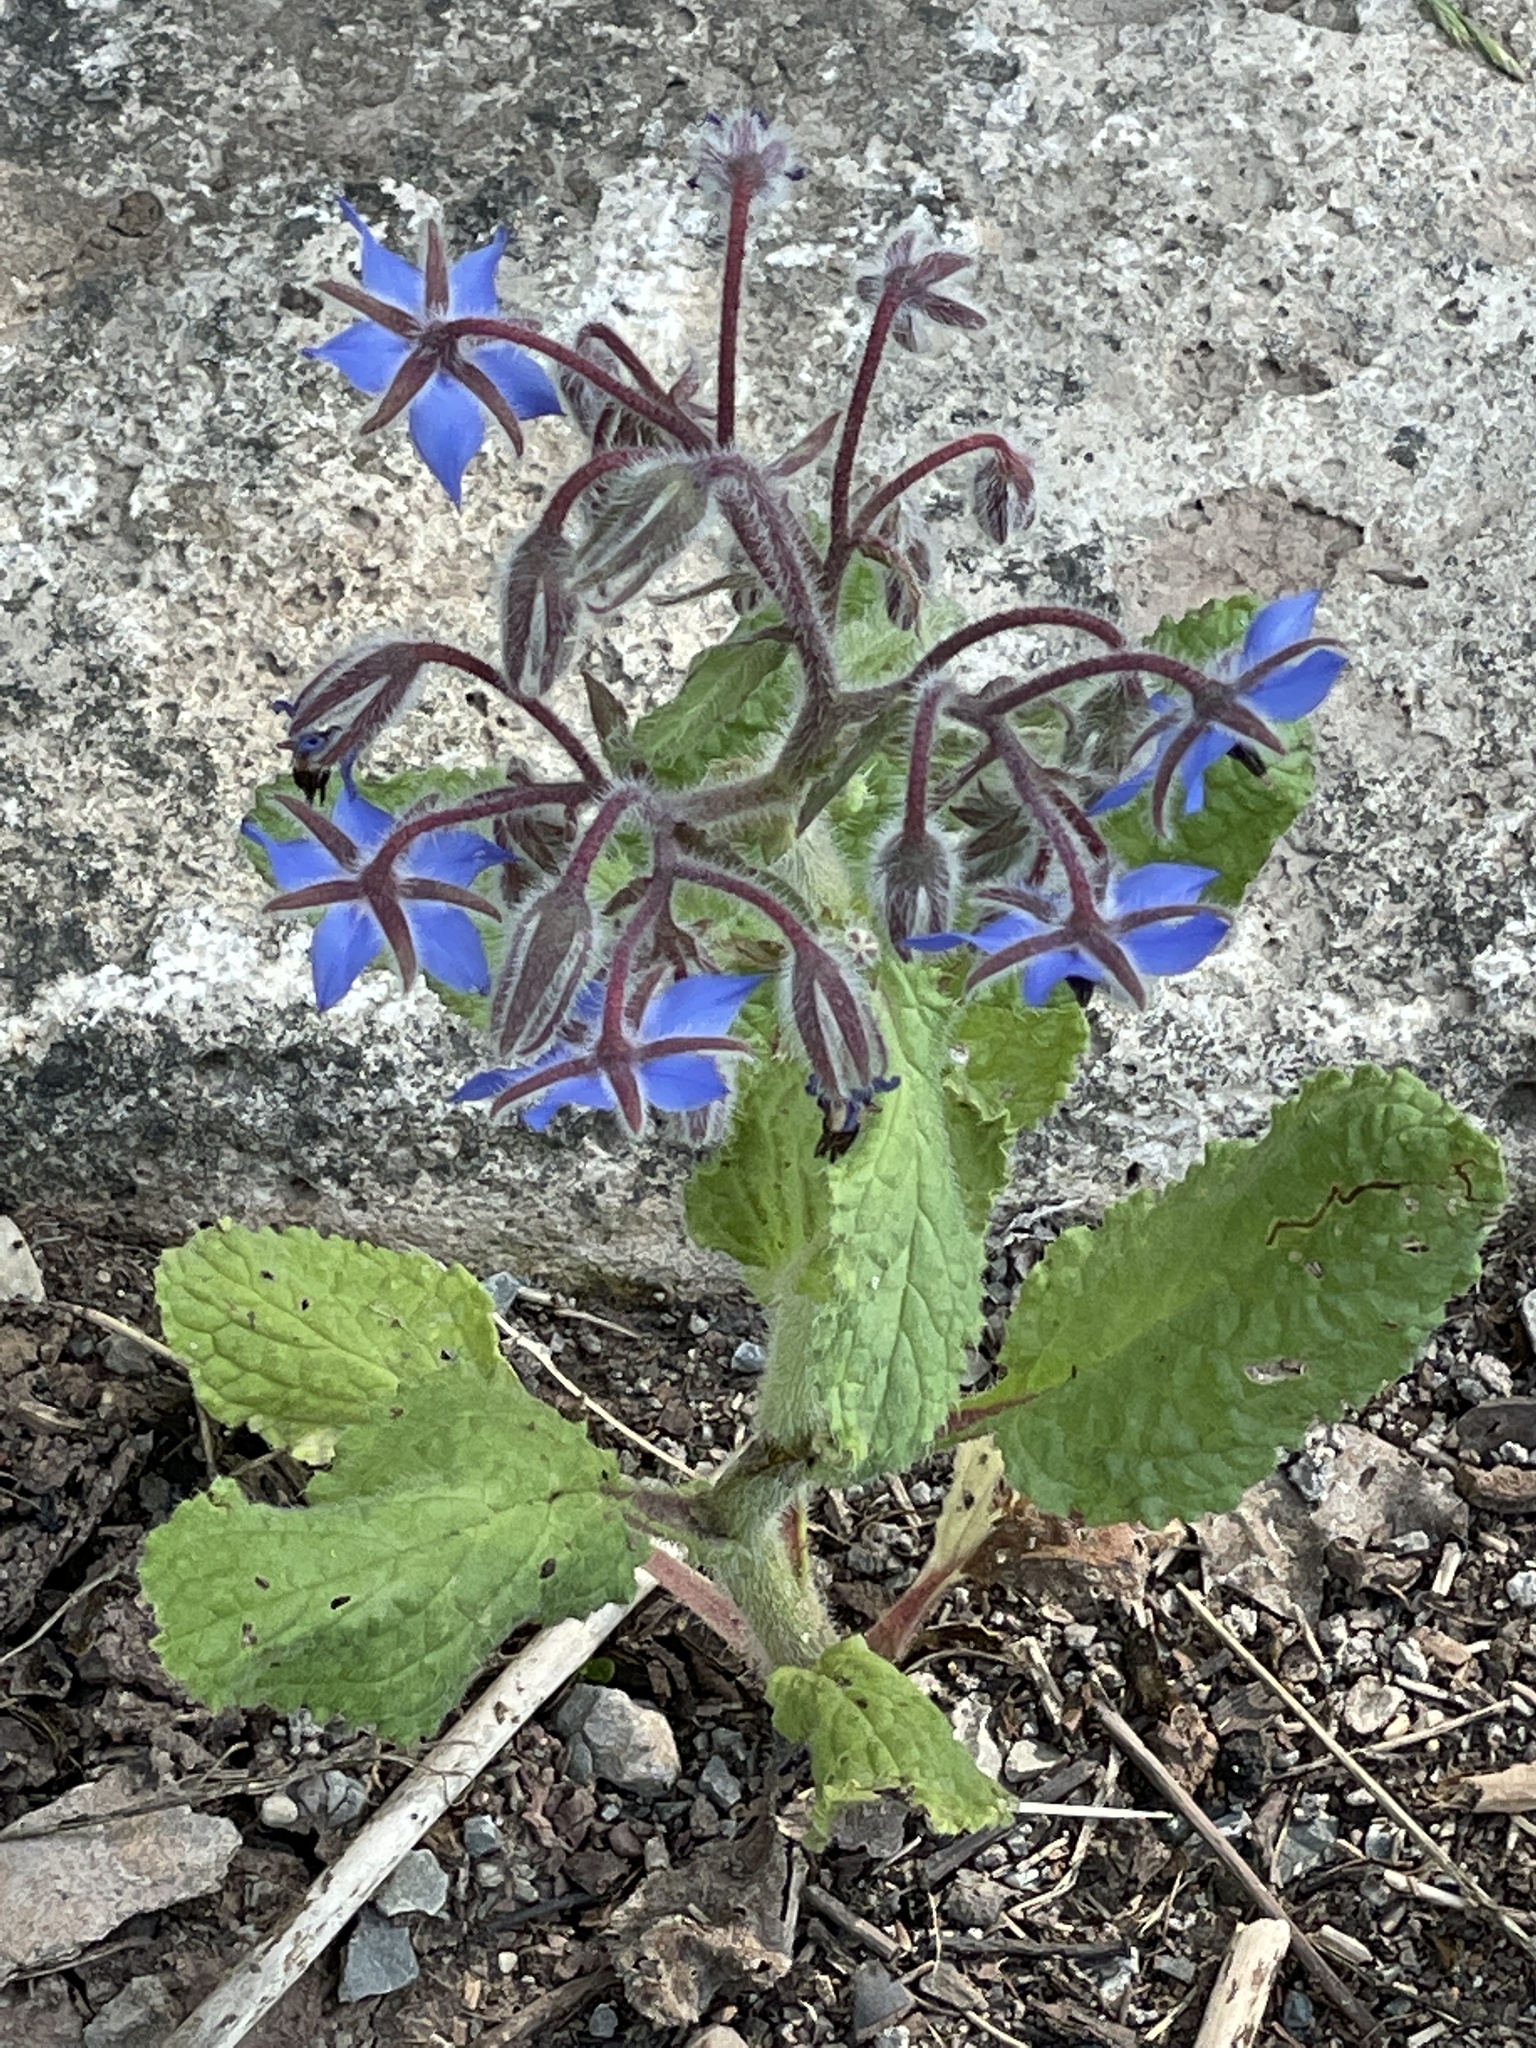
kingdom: Plantae
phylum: Tracheophyta
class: Magnoliopsida
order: Boraginales
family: Boraginaceae
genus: Borago
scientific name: Borago officinalis
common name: Borage
